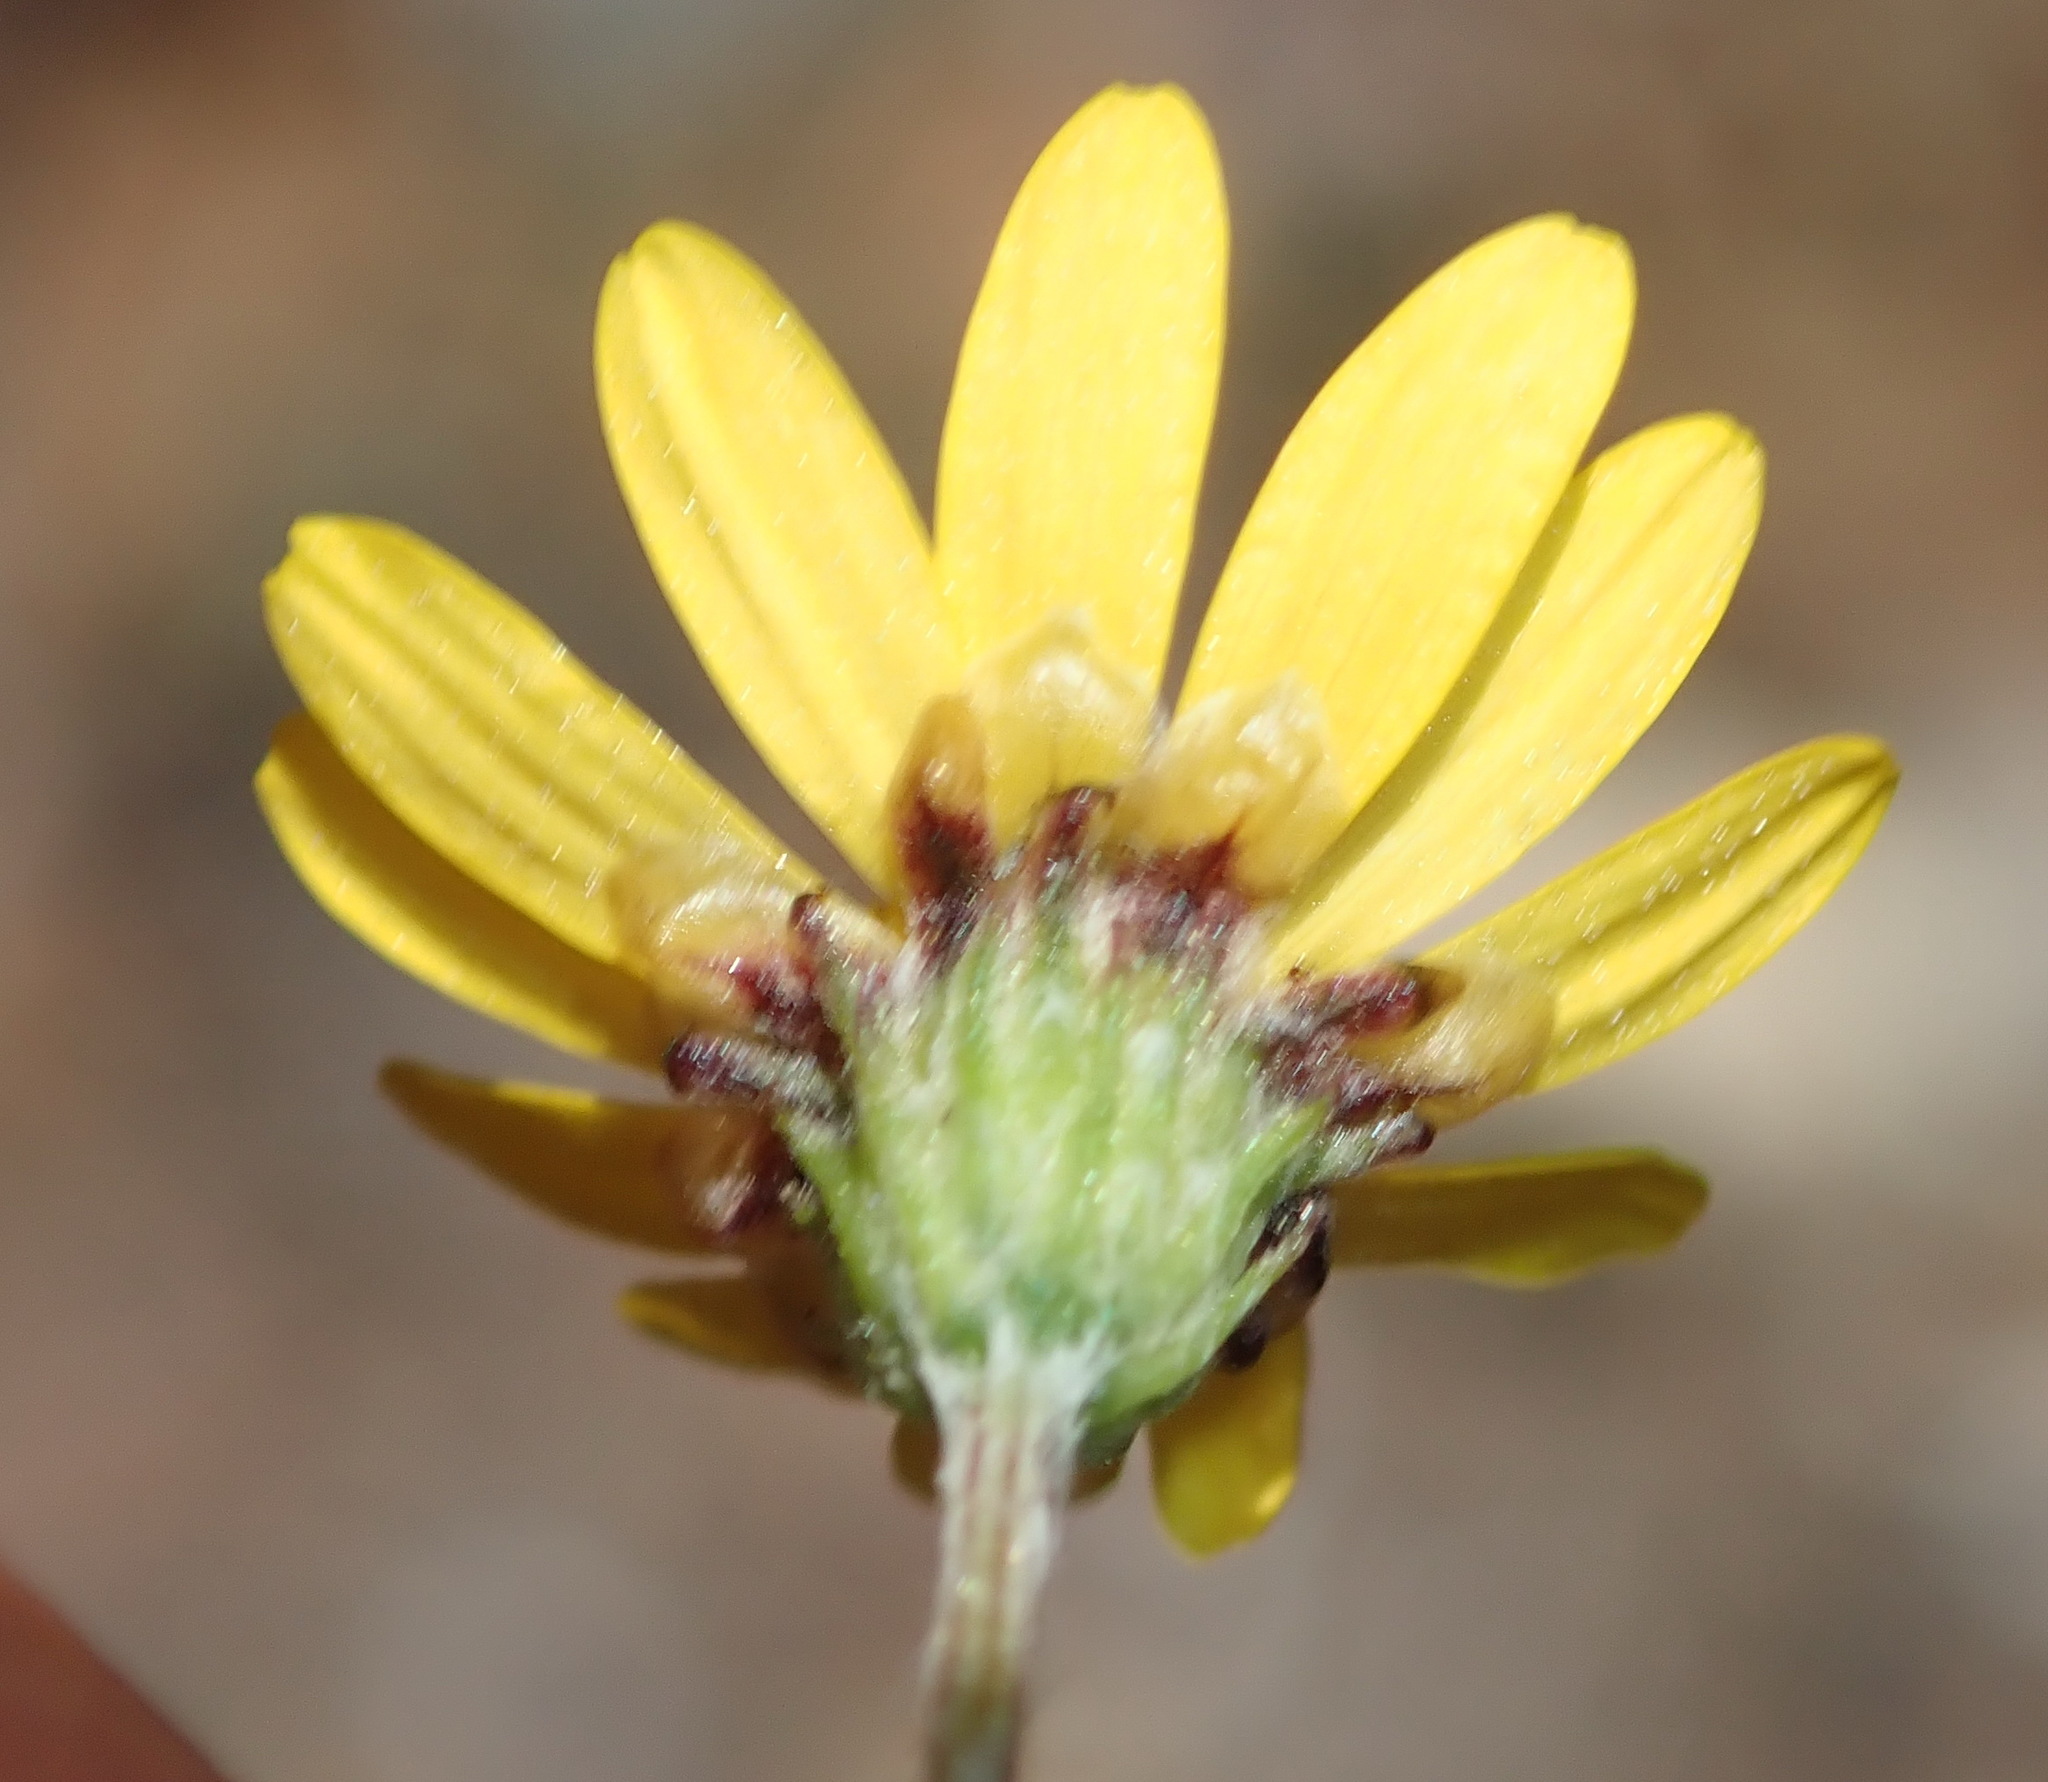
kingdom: Plantae
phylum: Tracheophyta
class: Magnoliopsida
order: Asterales
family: Asteraceae
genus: Ursinia
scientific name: Ursinia trifida
